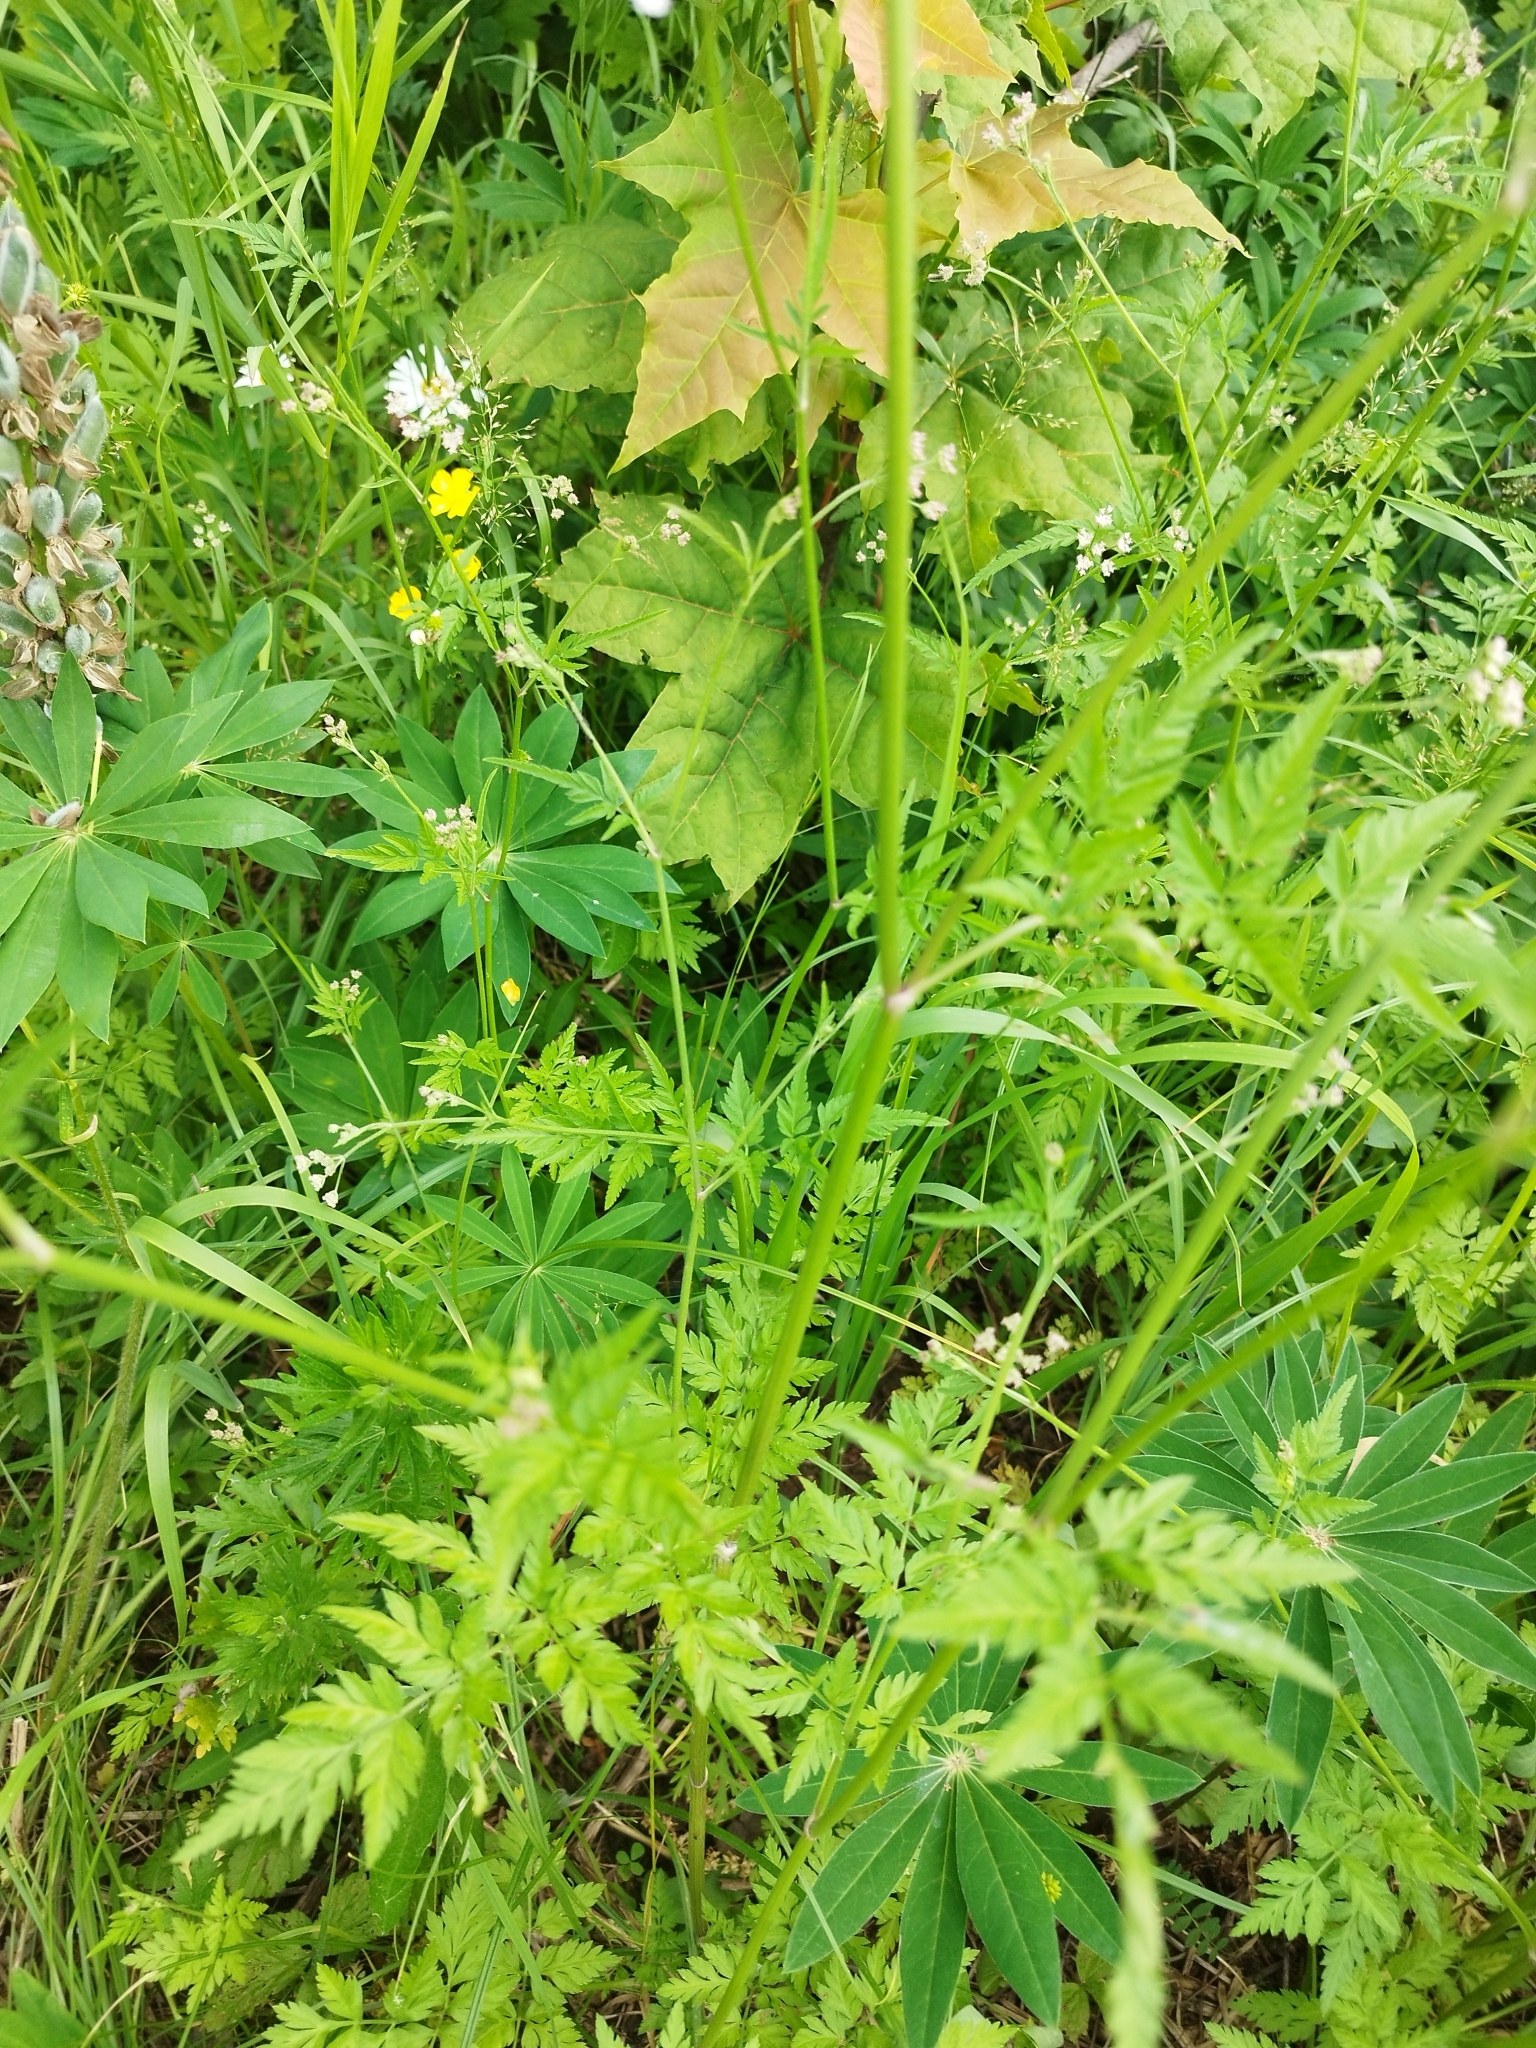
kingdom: Plantae
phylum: Tracheophyta
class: Magnoliopsida
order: Apiales
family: Apiaceae
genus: Anthriscus
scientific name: Anthriscus sylvestris
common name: Cow parsley
